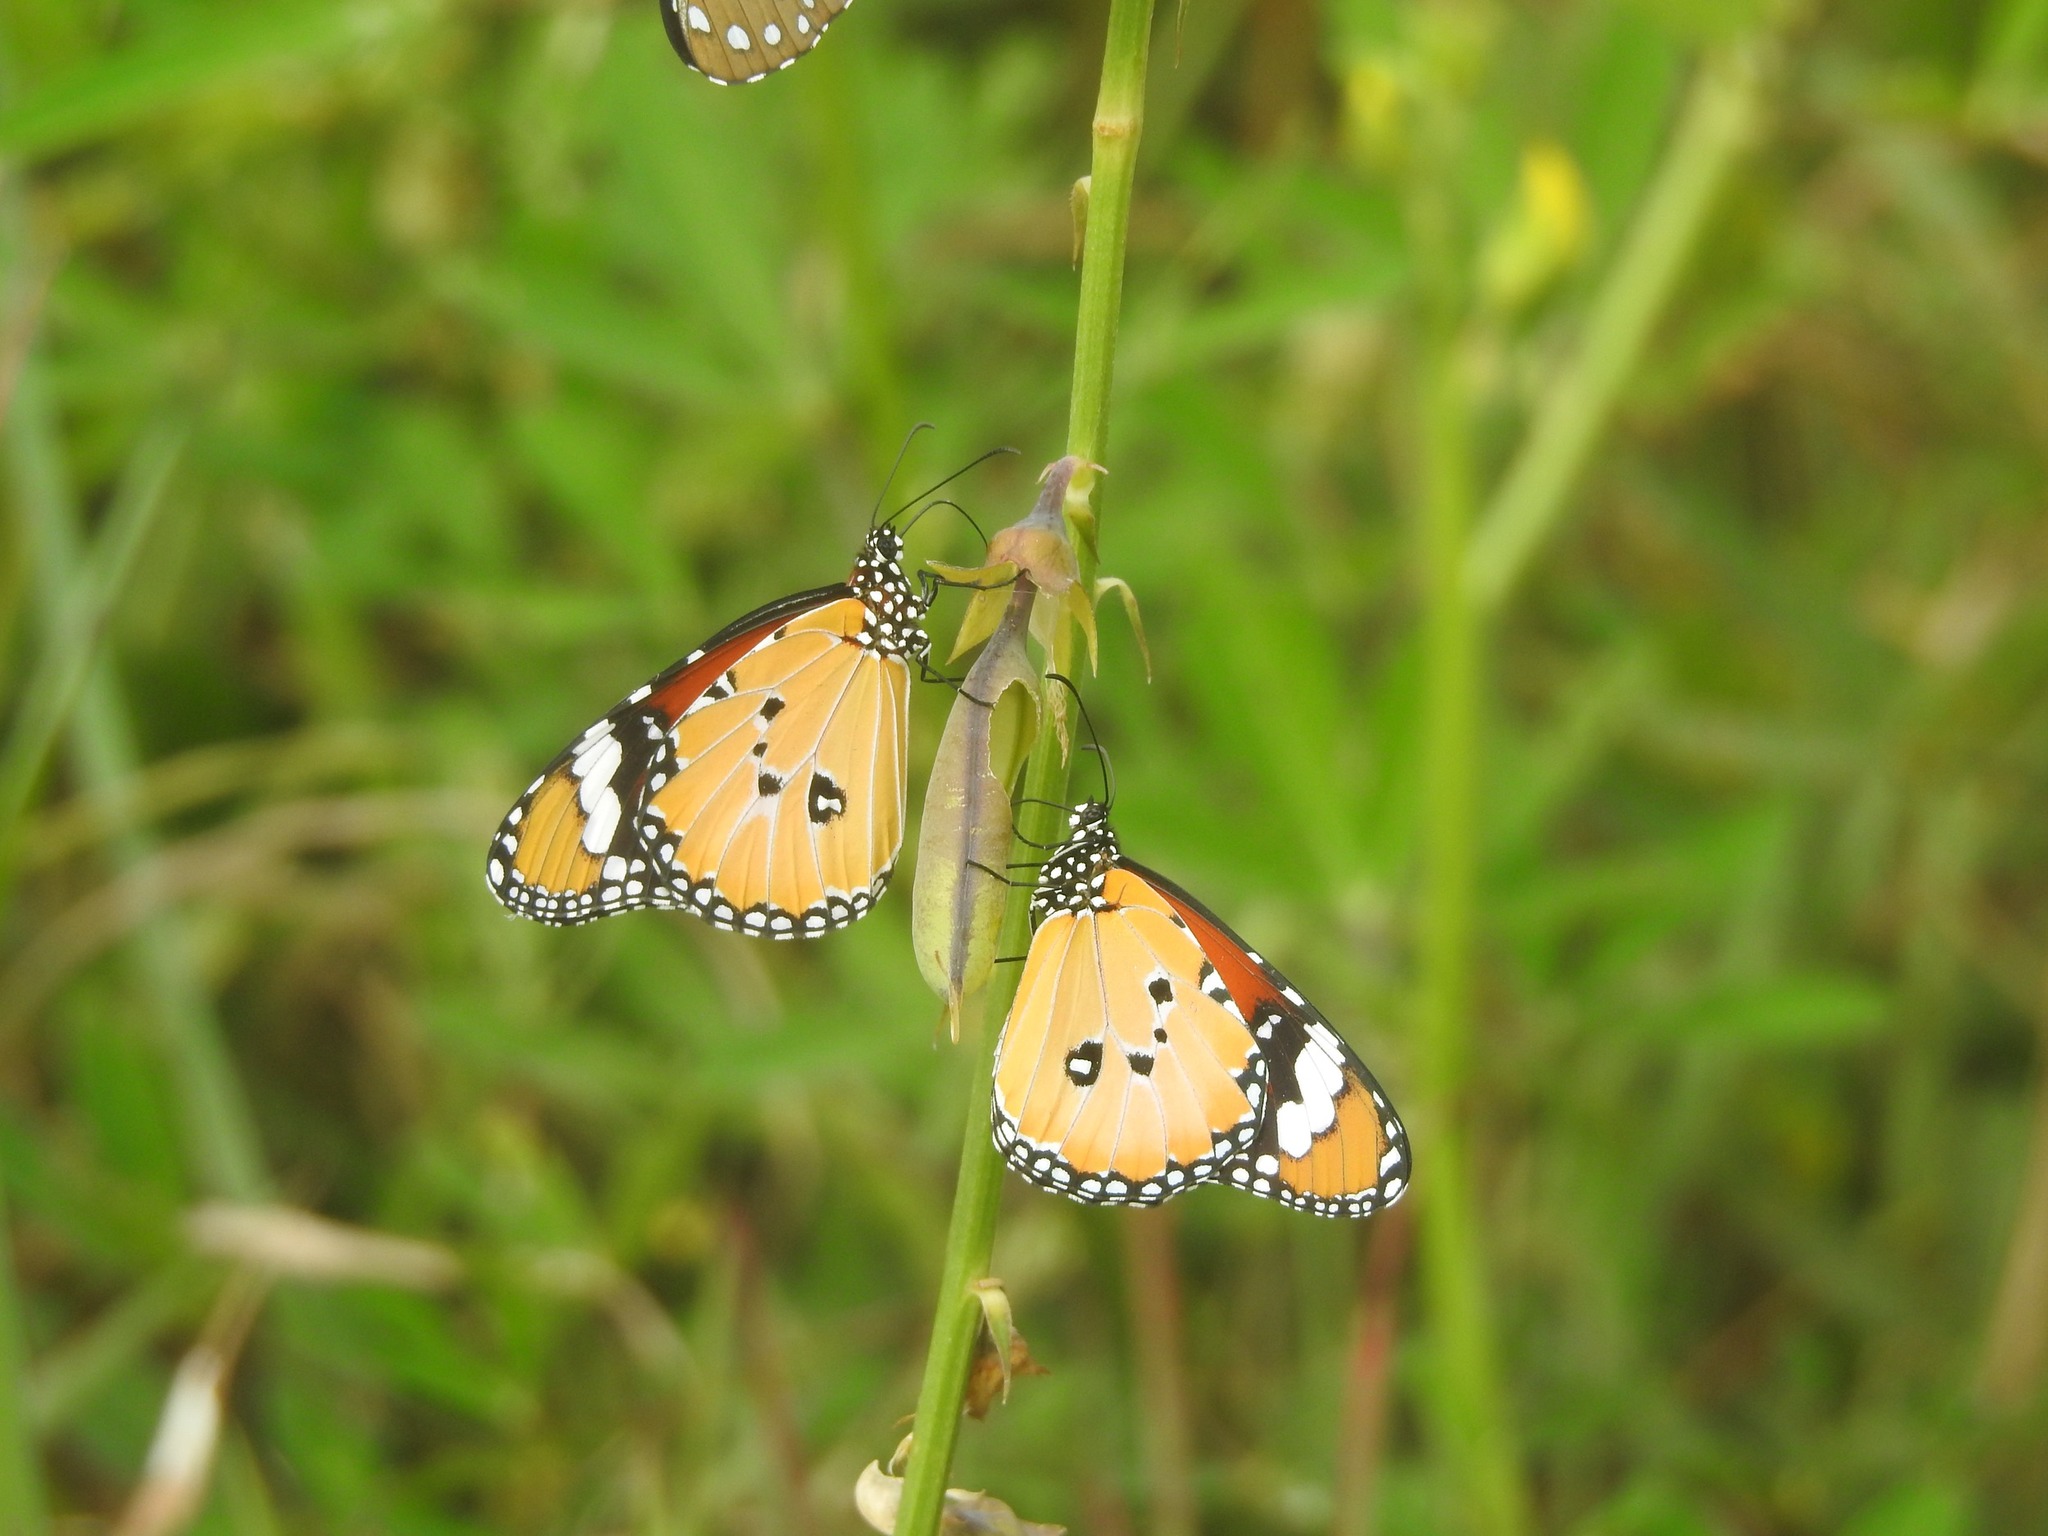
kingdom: Animalia
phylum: Arthropoda
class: Insecta
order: Lepidoptera
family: Nymphalidae
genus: Danaus
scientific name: Danaus chrysippus
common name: Plain tiger
